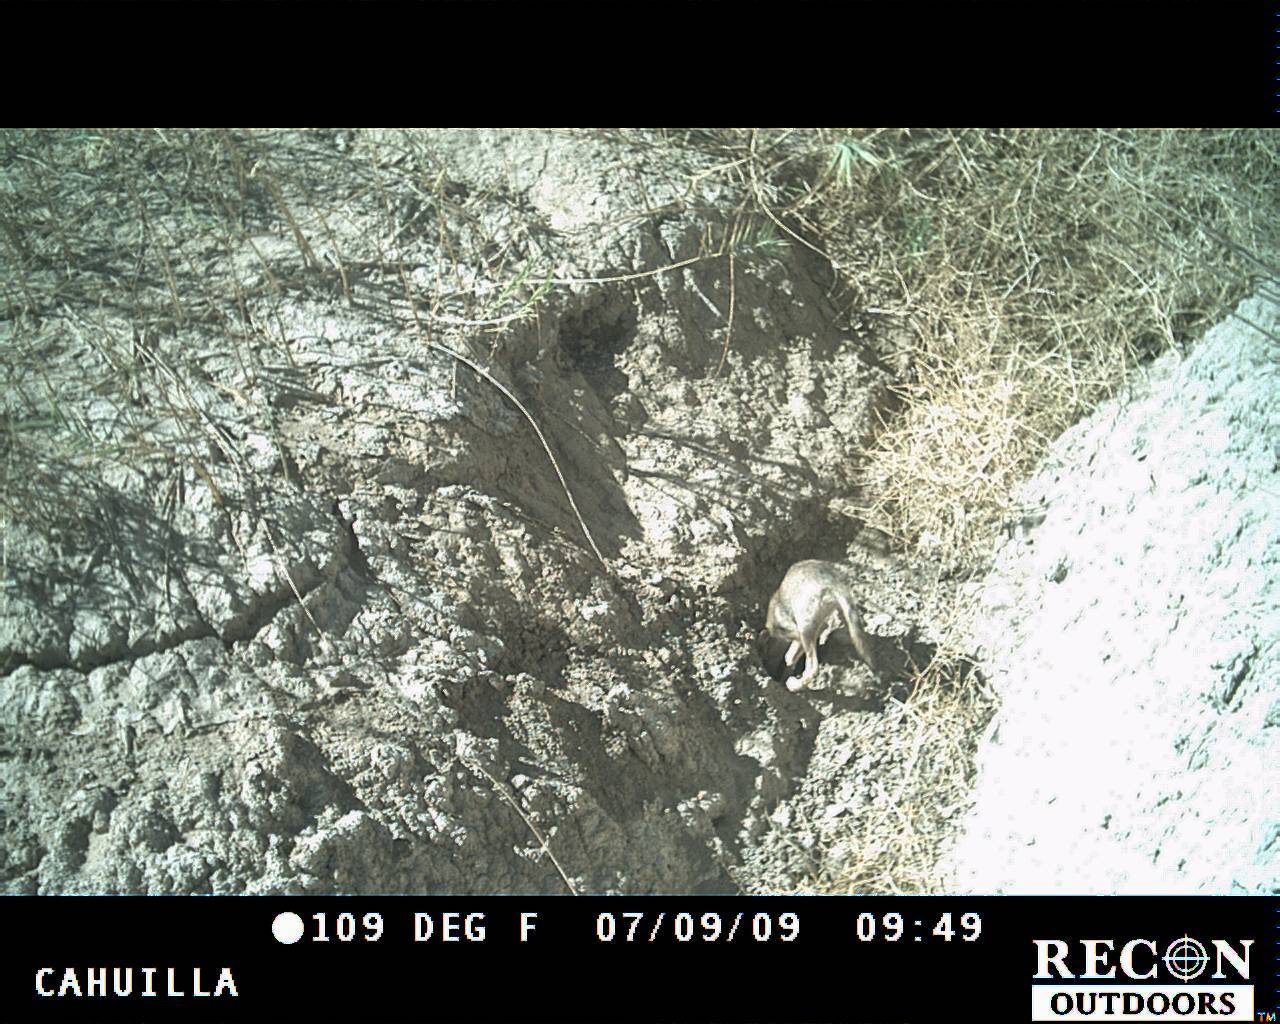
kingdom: Animalia
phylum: Chordata
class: Mammalia
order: Carnivora
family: Canidae
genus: Canis
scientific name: Canis latrans
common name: Coyote
